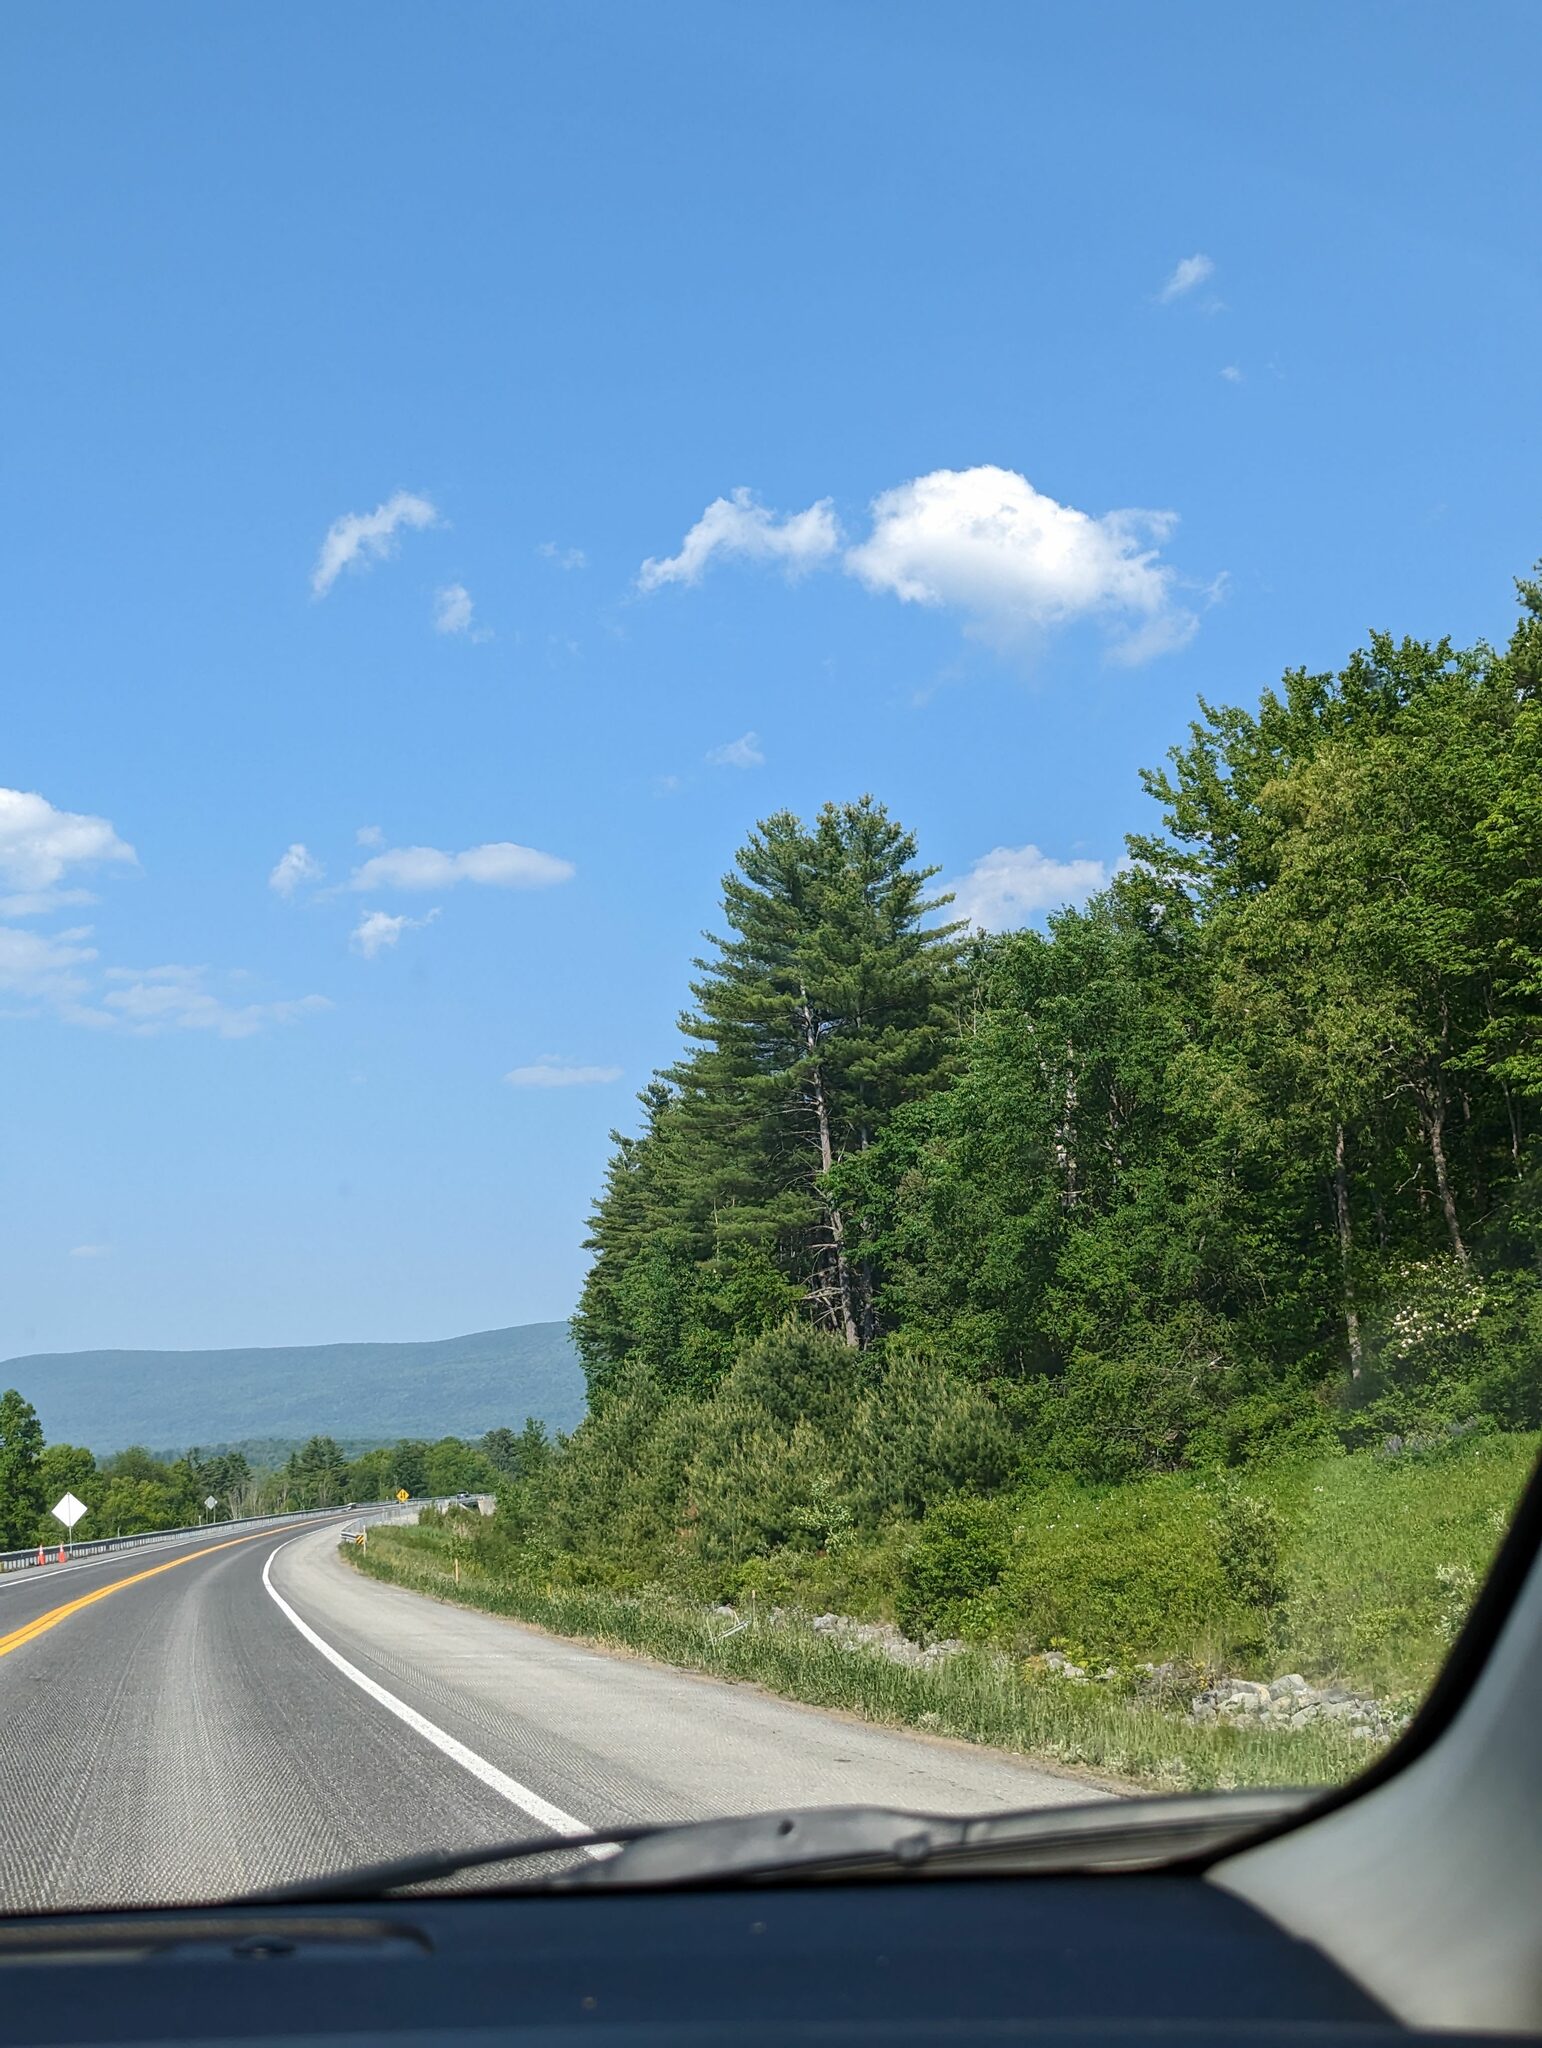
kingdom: Plantae
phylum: Tracheophyta
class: Pinopsida
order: Pinales
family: Pinaceae
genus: Pinus
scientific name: Pinus strobus
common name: Weymouth pine
